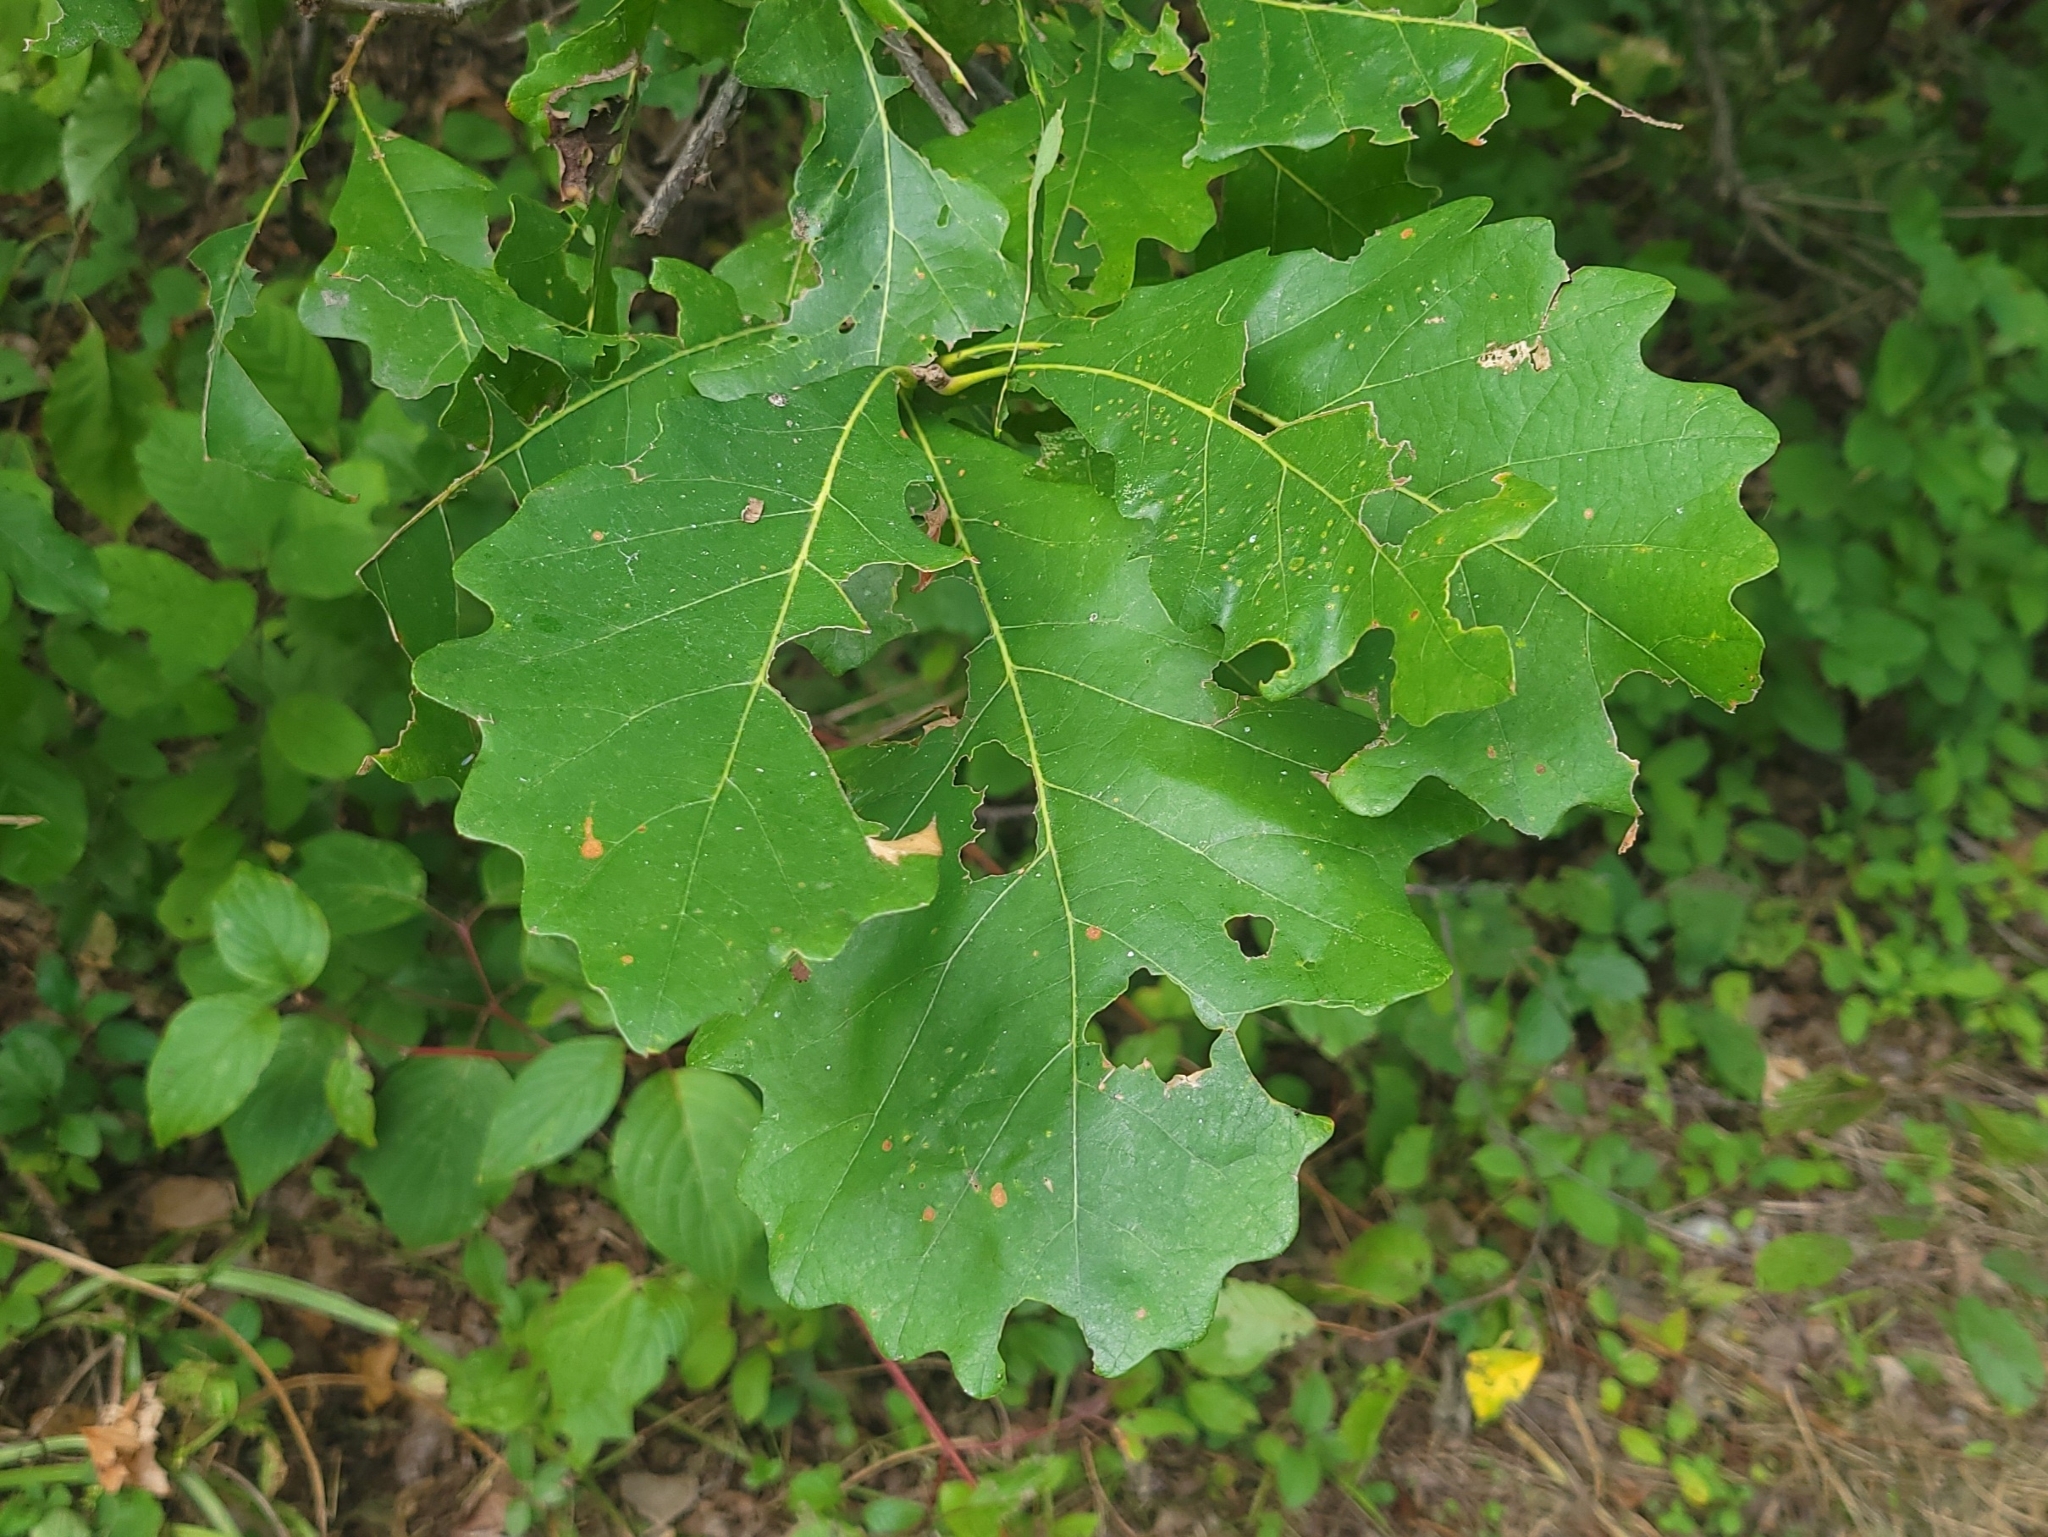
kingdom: Plantae
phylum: Tracheophyta
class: Magnoliopsida
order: Fagales
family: Fagaceae
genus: Quercus
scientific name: Quercus macrocarpa
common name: Bur oak
